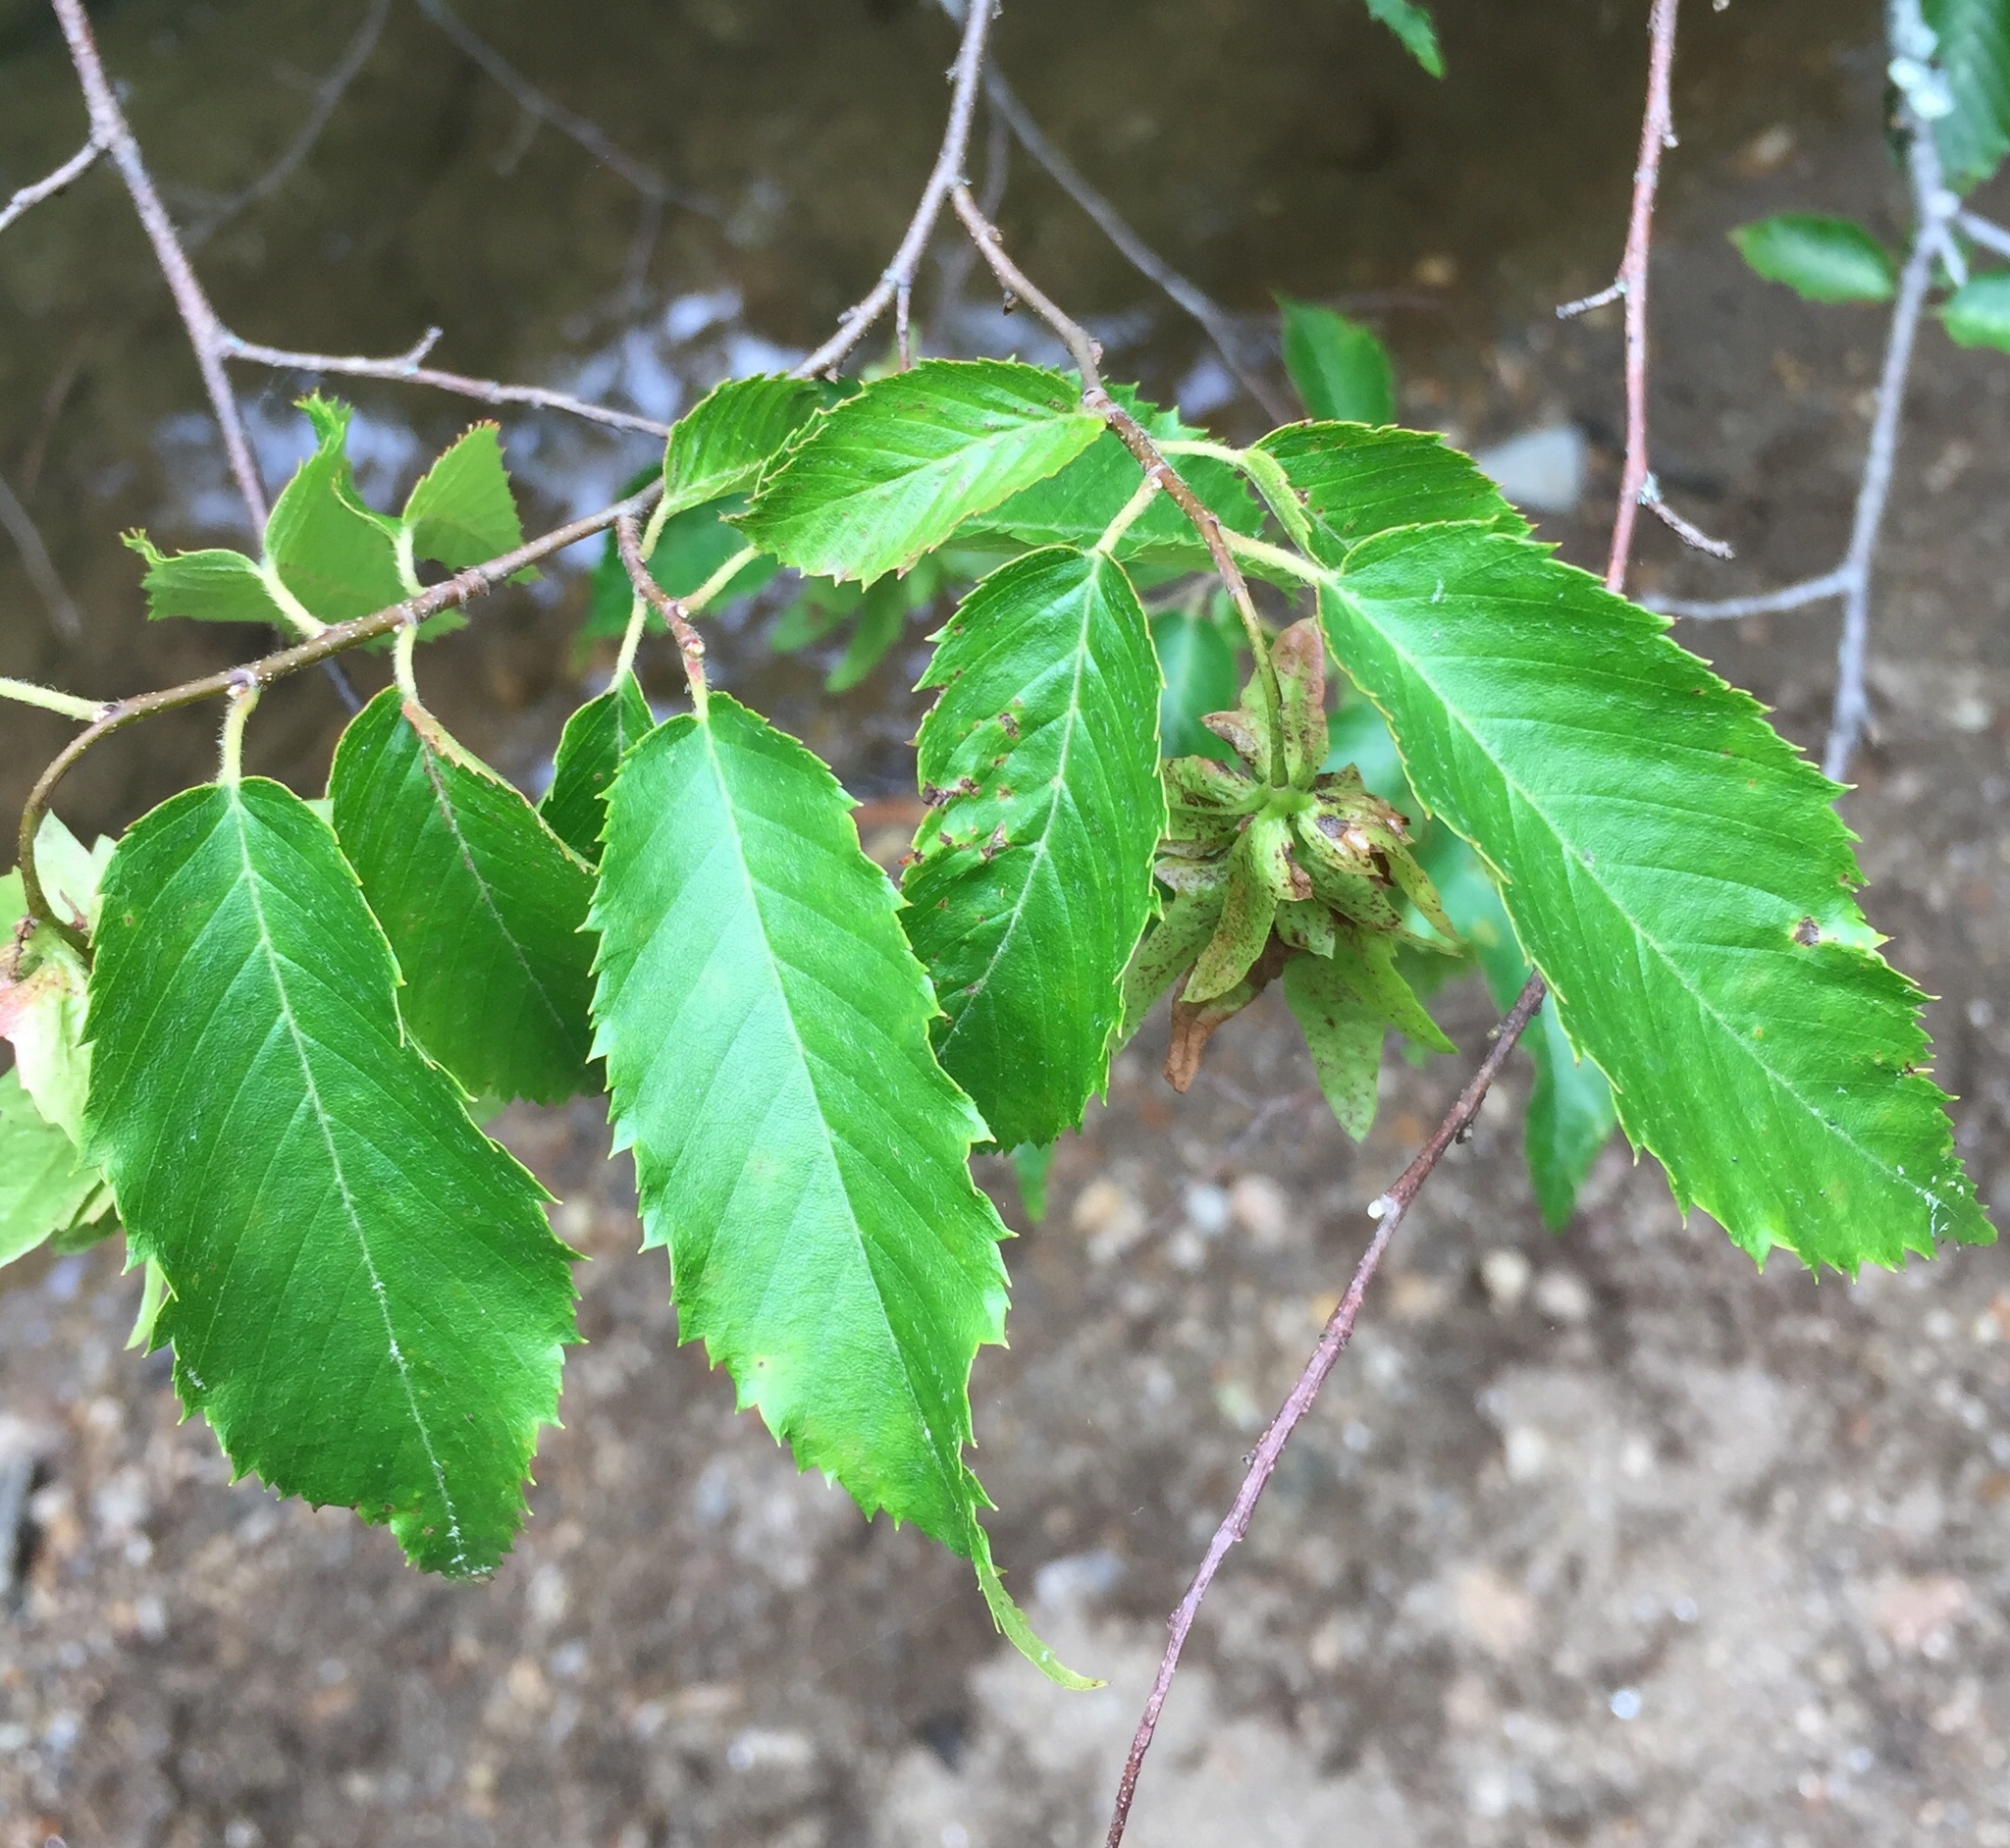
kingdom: Plantae
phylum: Tracheophyta
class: Magnoliopsida
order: Fagales
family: Betulaceae
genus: Carpinus
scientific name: Carpinus caroliniana
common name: American hornbeam
